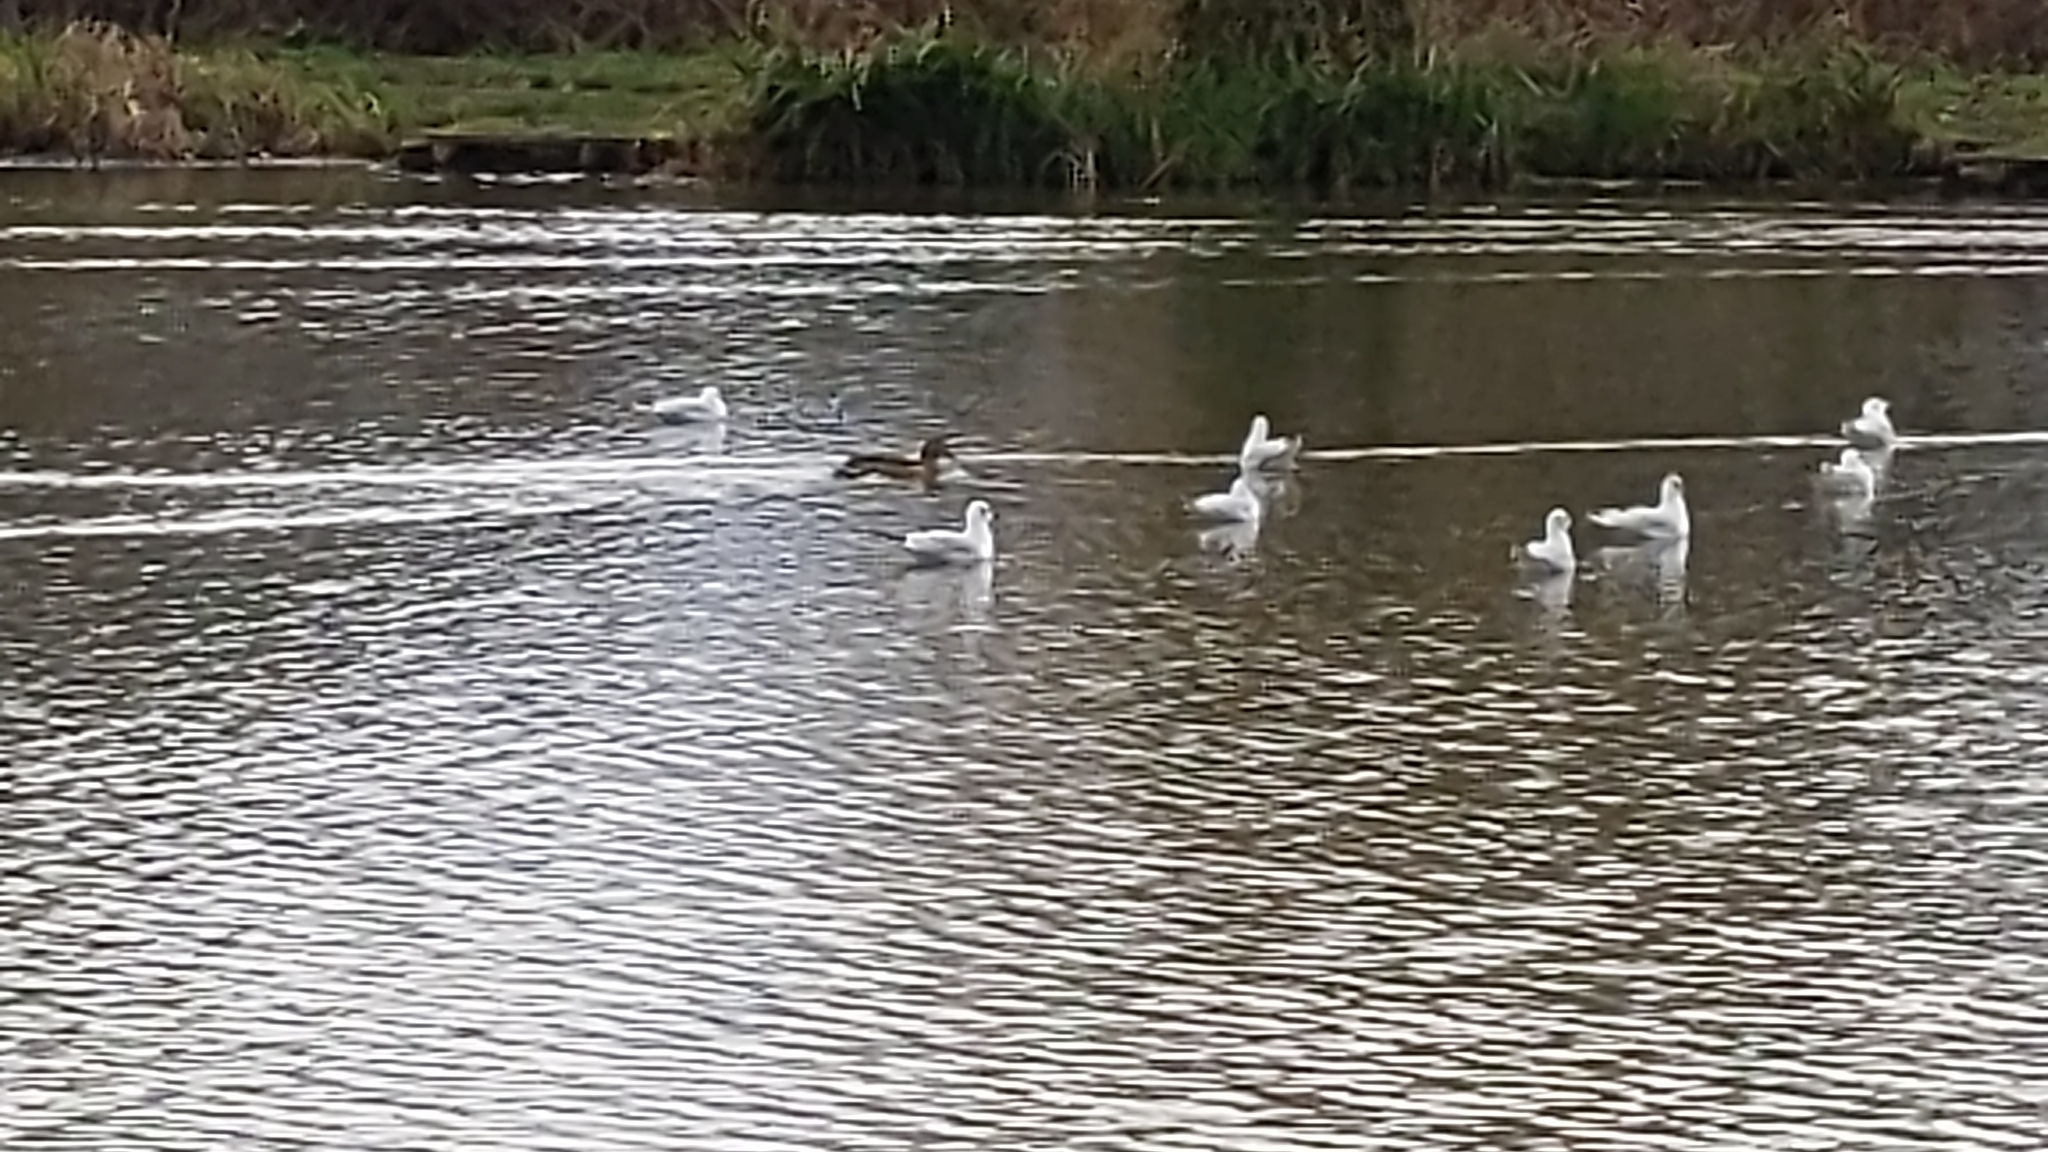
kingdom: Animalia
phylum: Chordata
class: Aves
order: Charadriiformes
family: Laridae
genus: Chroicocephalus
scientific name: Chroicocephalus ridibundus
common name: Black-headed gull
